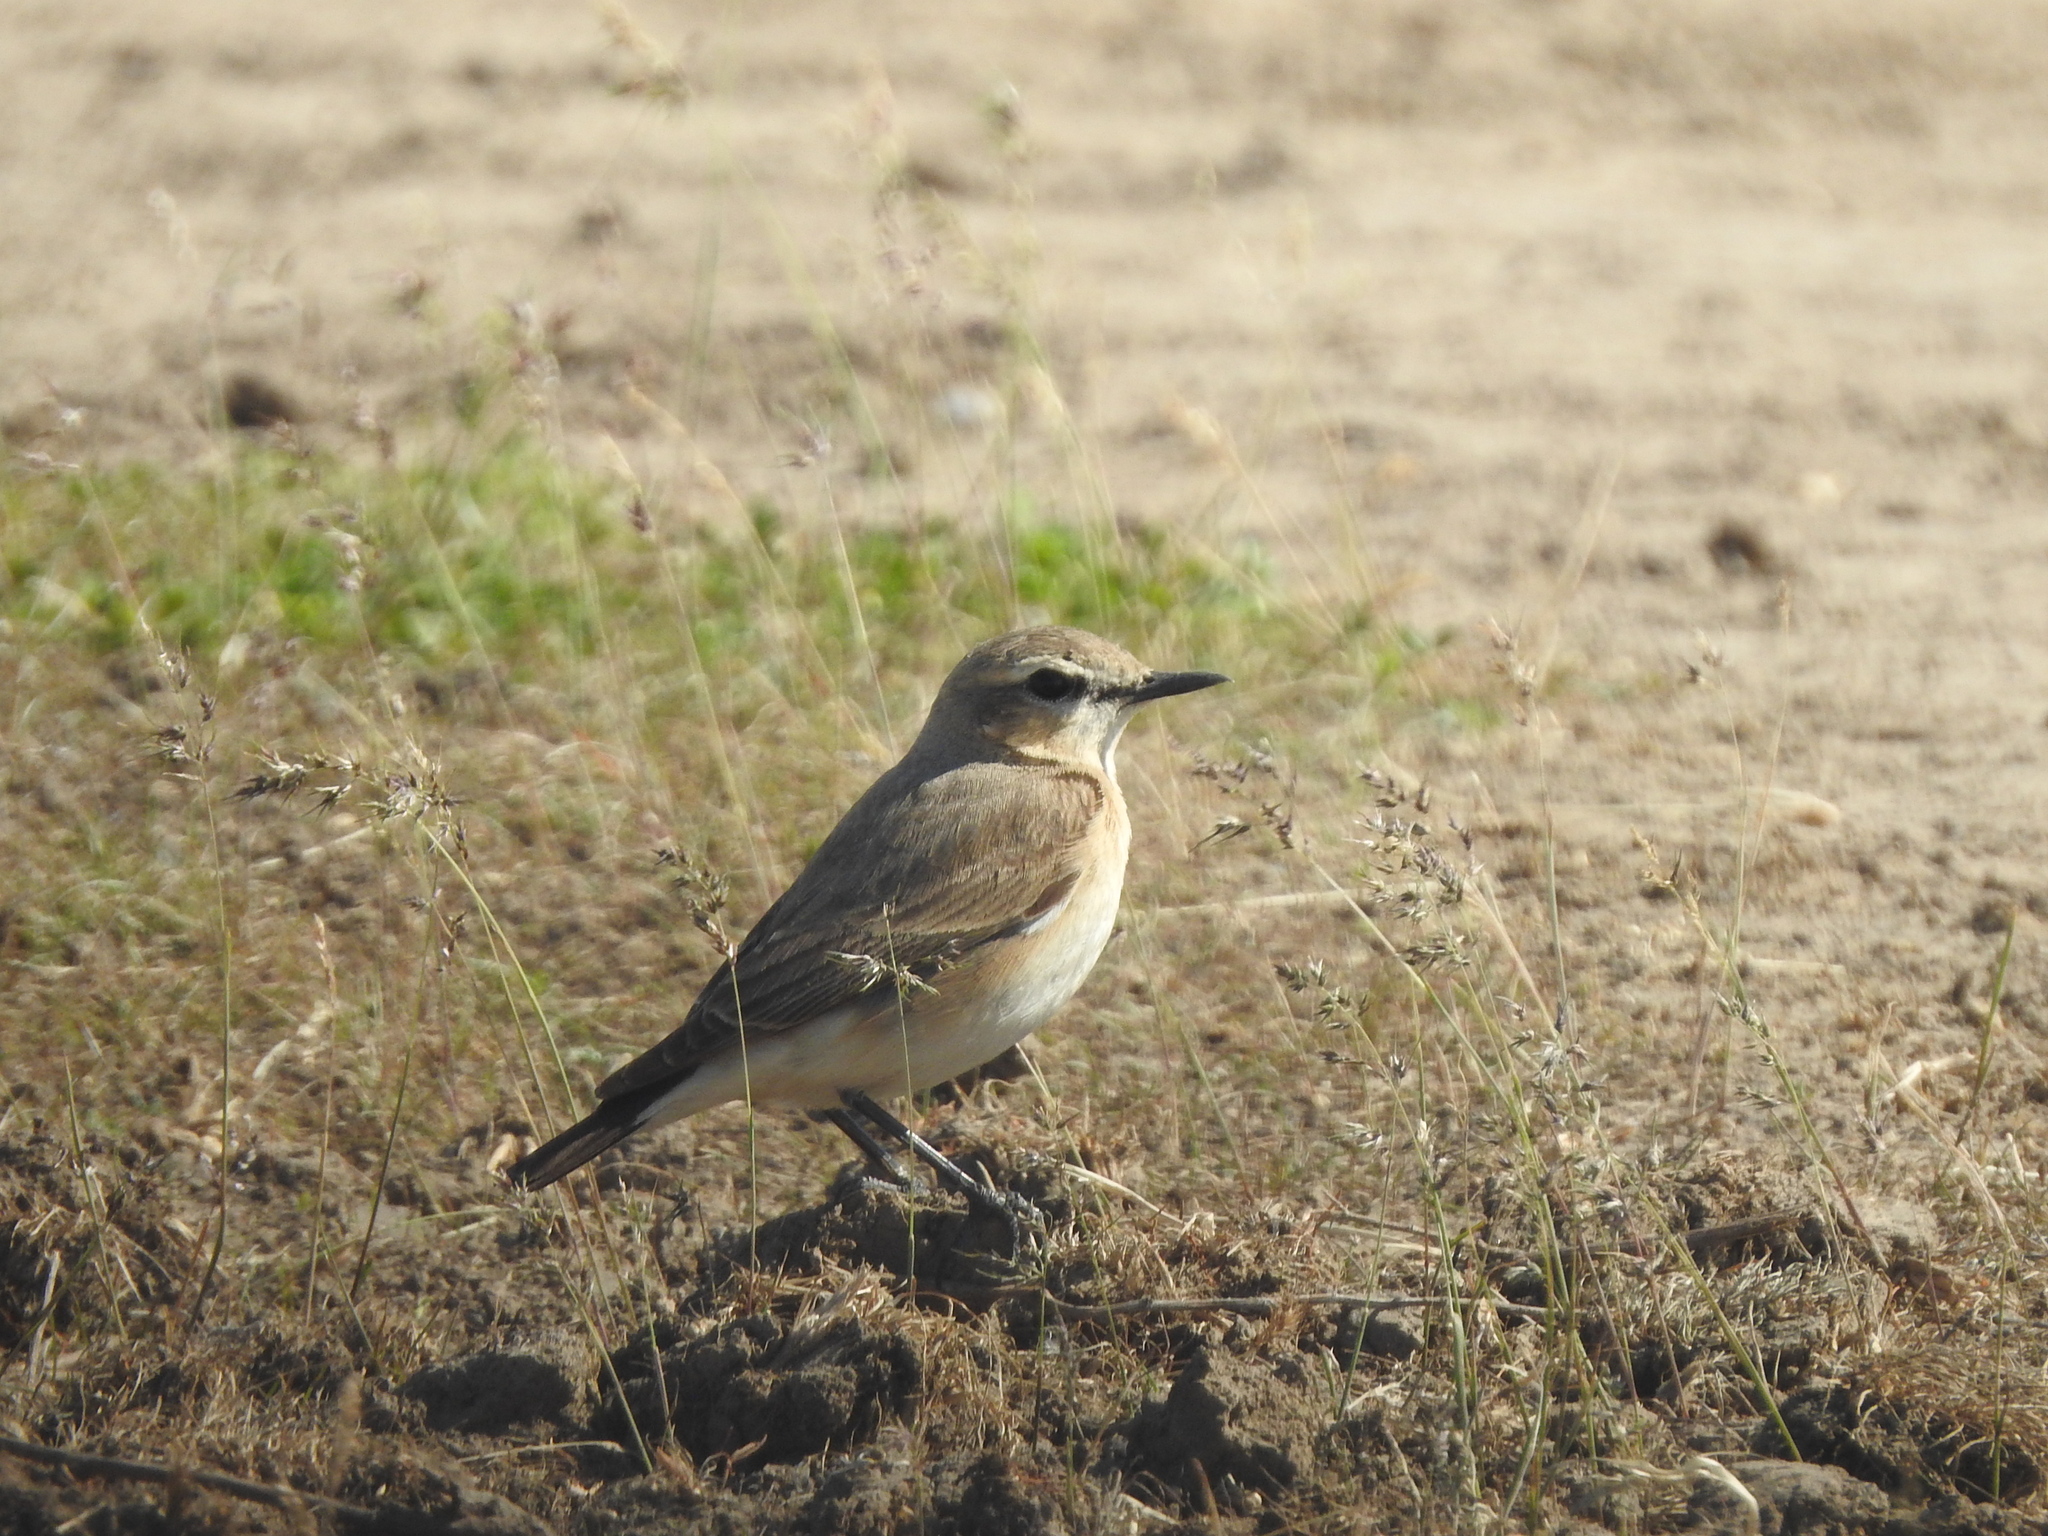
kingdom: Animalia
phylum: Chordata
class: Aves
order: Passeriformes
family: Muscicapidae
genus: Oenanthe
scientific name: Oenanthe isabellina
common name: Isabelline wheatear
